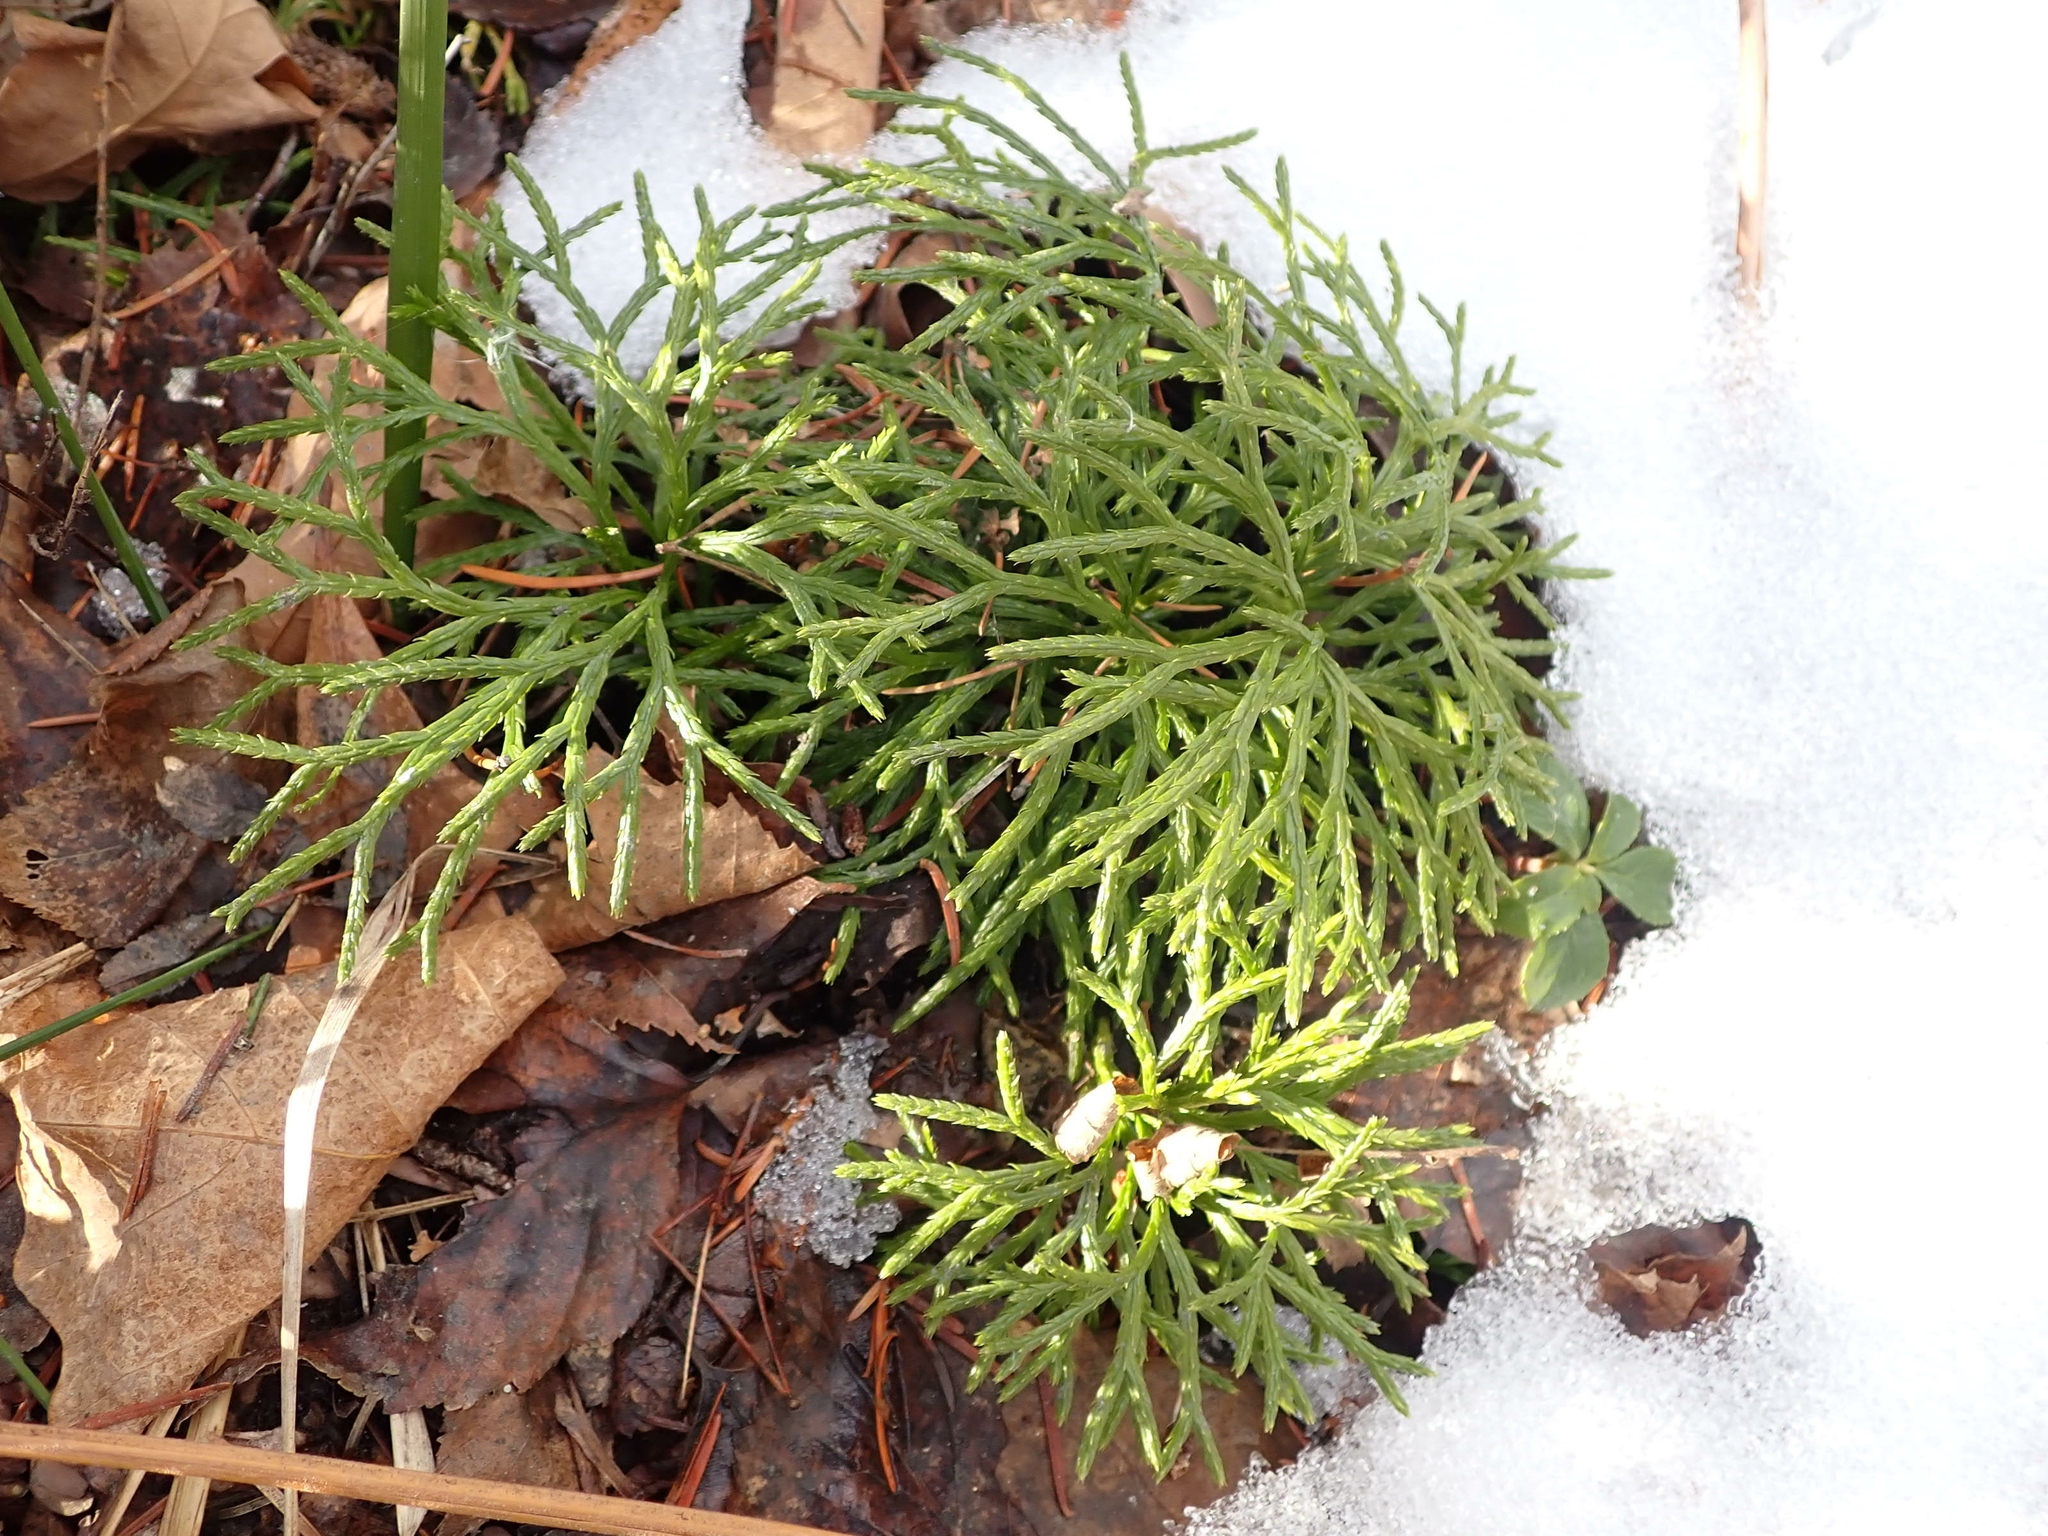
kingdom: Plantae
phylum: Tracheophyta
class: Lycopodiopsida
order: Lycopodiales
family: Lycopodiaceae
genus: Diphasiastrum
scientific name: Diphasiastrum complanatum
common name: Northern running-pine
